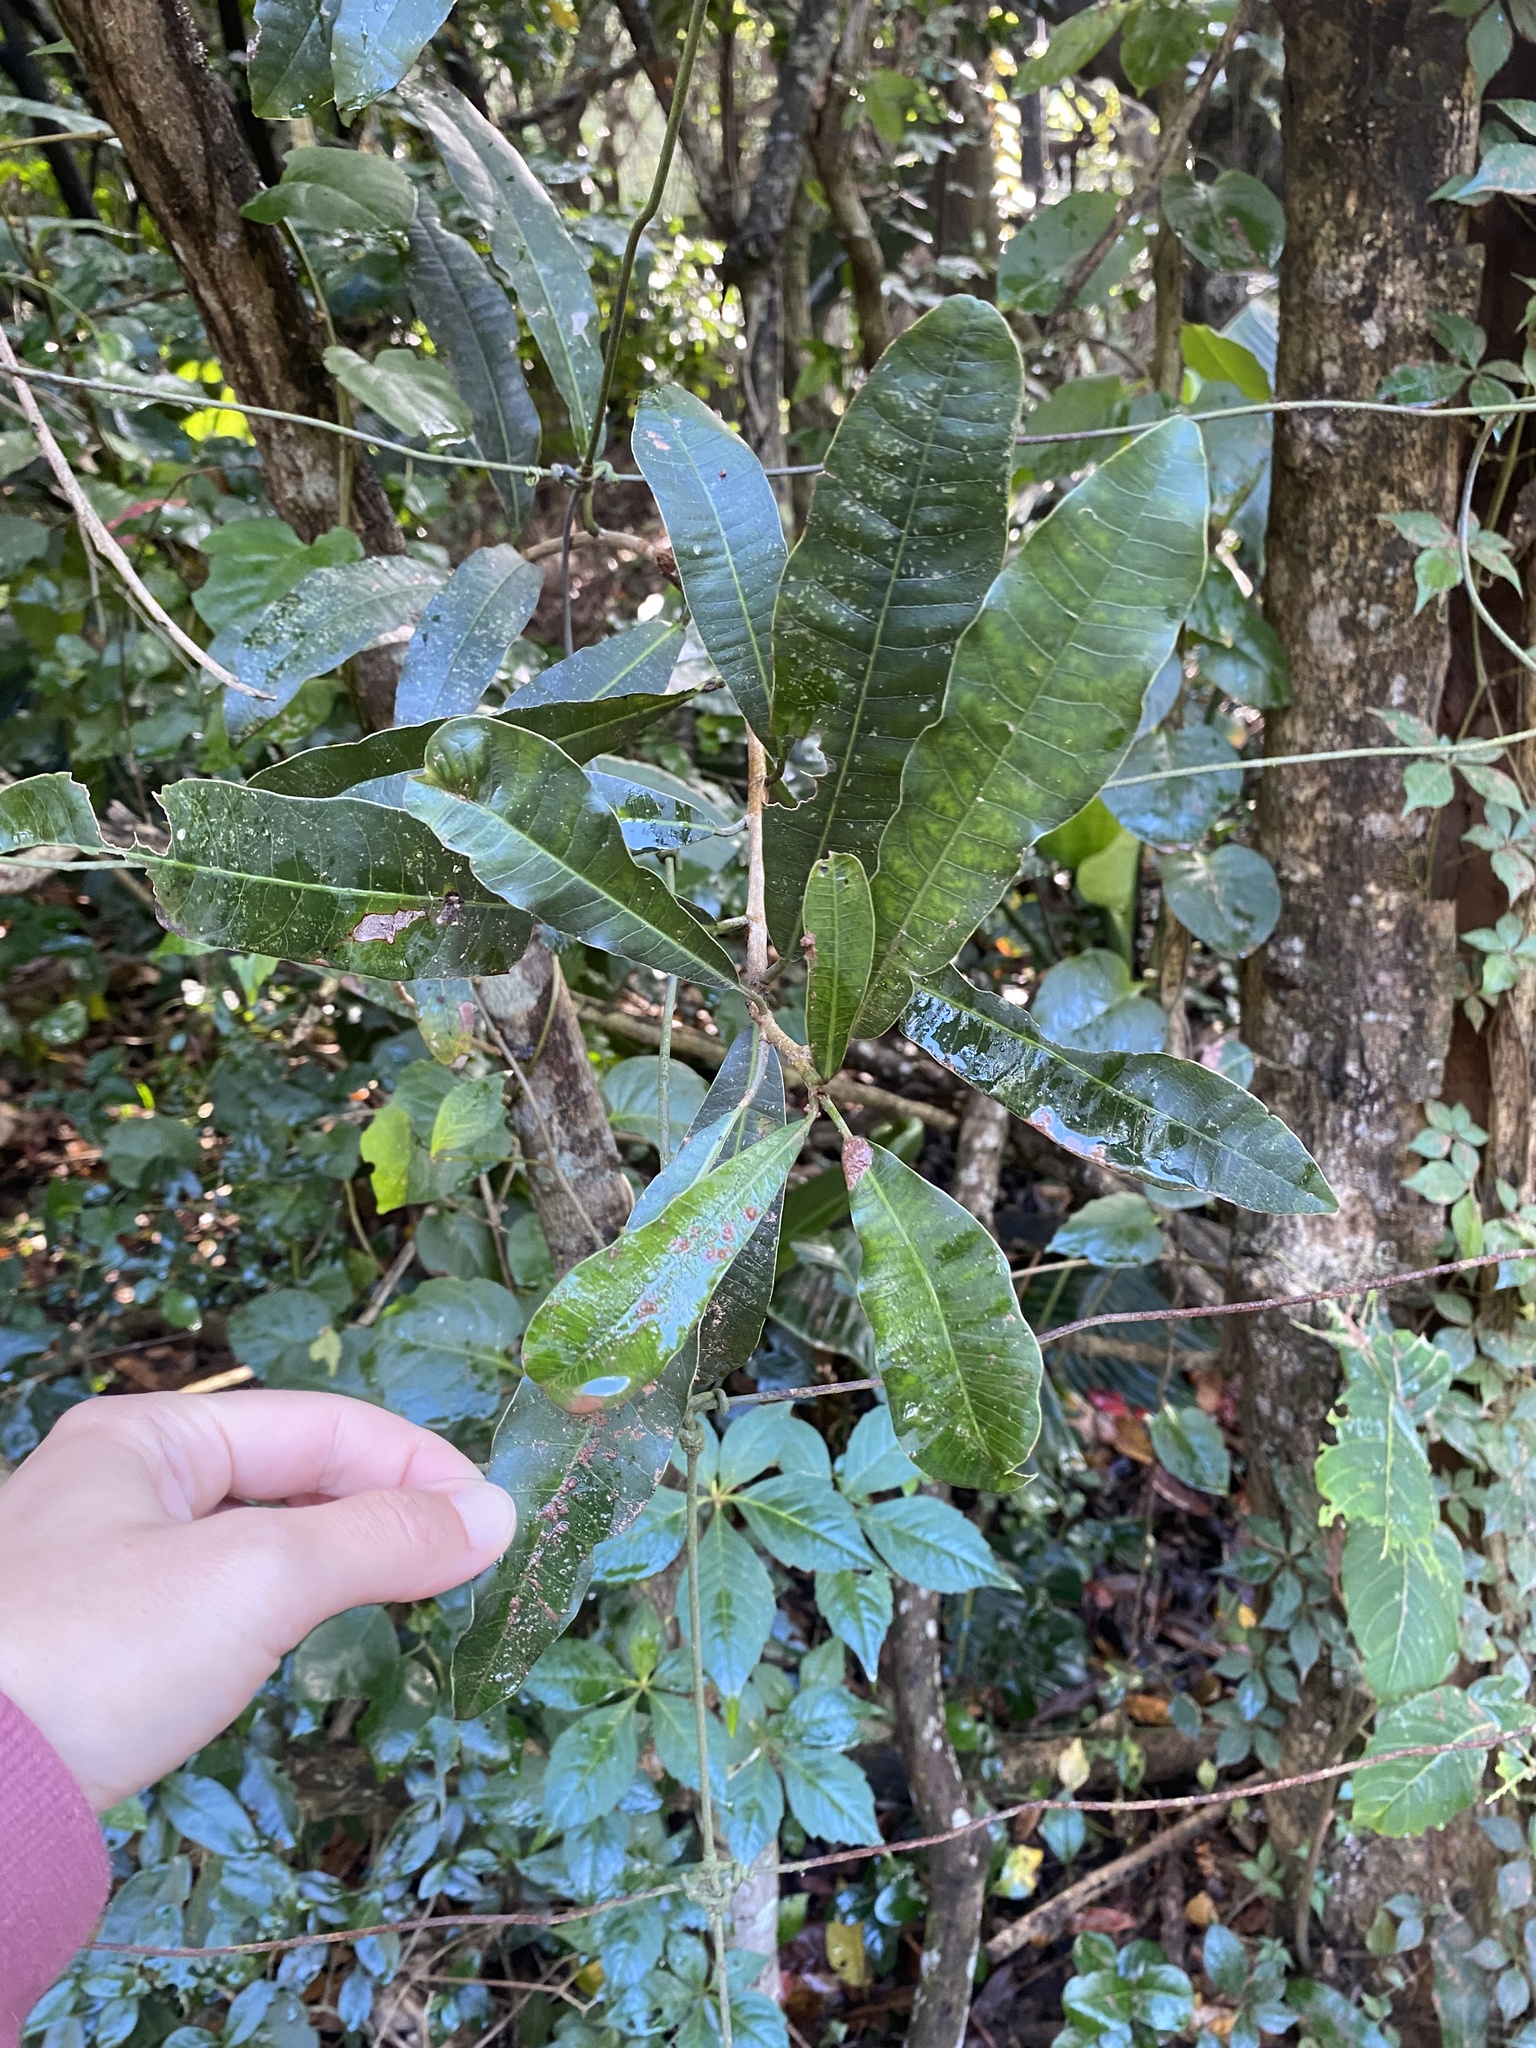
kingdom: Plantae
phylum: Tracheophyta
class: Magnoliopsida
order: Sapindales
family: Anacardiaceae
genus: Protorhus
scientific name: Protorhus longifolia
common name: Red-beech
